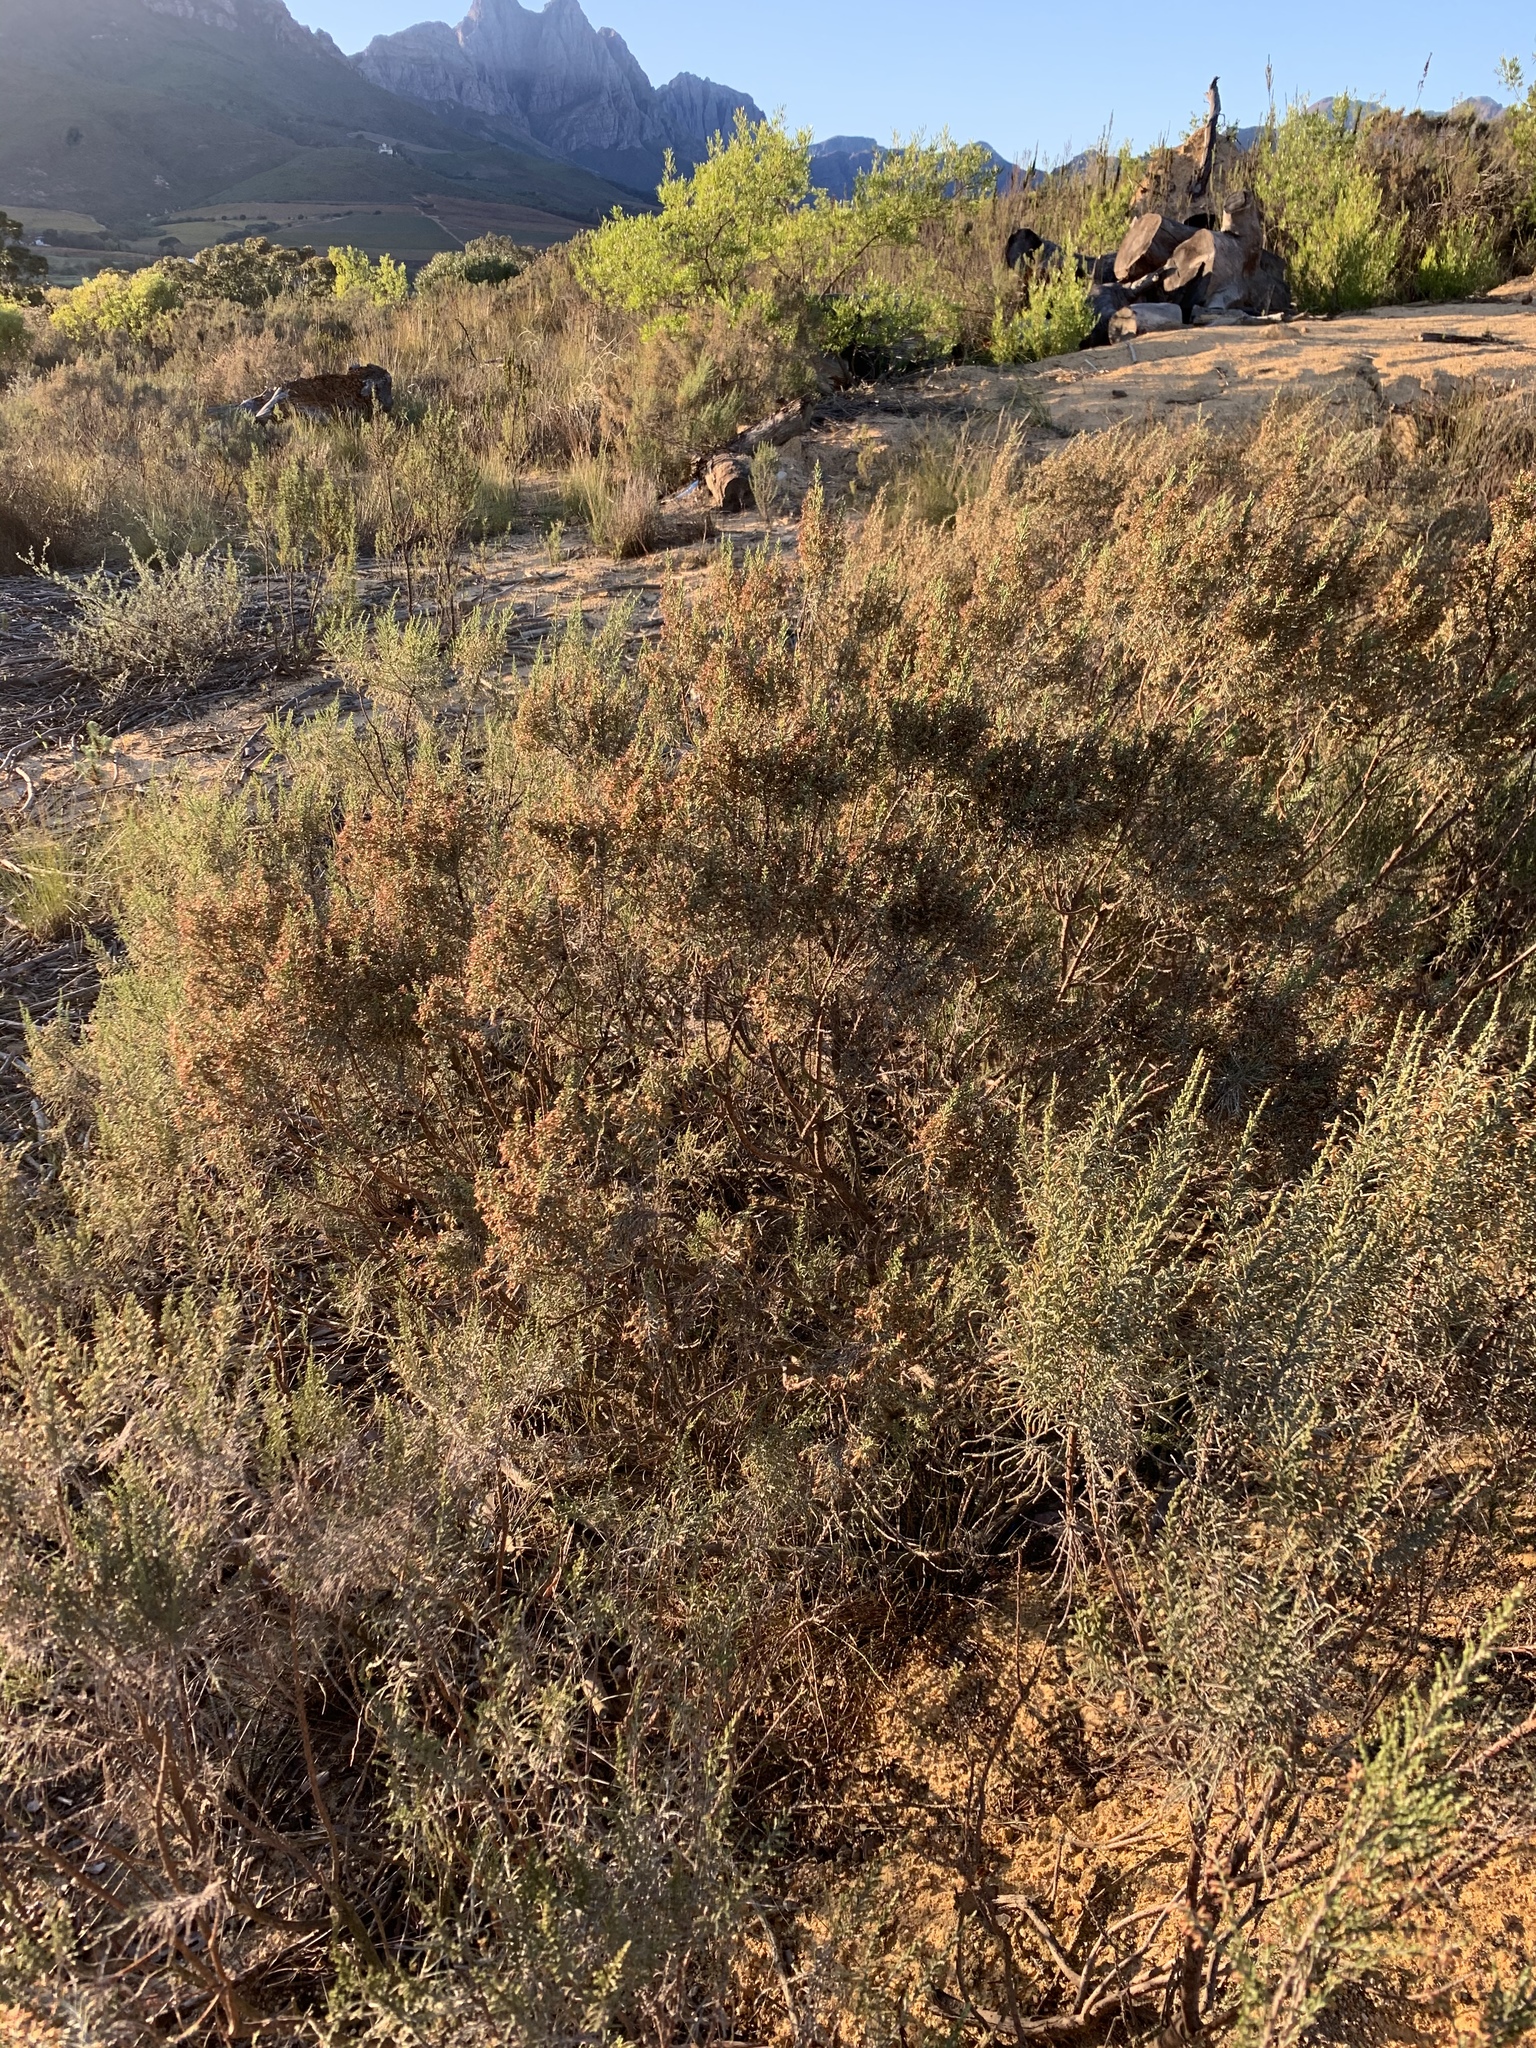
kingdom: Plantae
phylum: Tracheophyta
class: Magnoliopsida
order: Asterales
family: Asteraceae
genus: Dicerothamnus
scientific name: Dicerothamnus rhinocerotis
